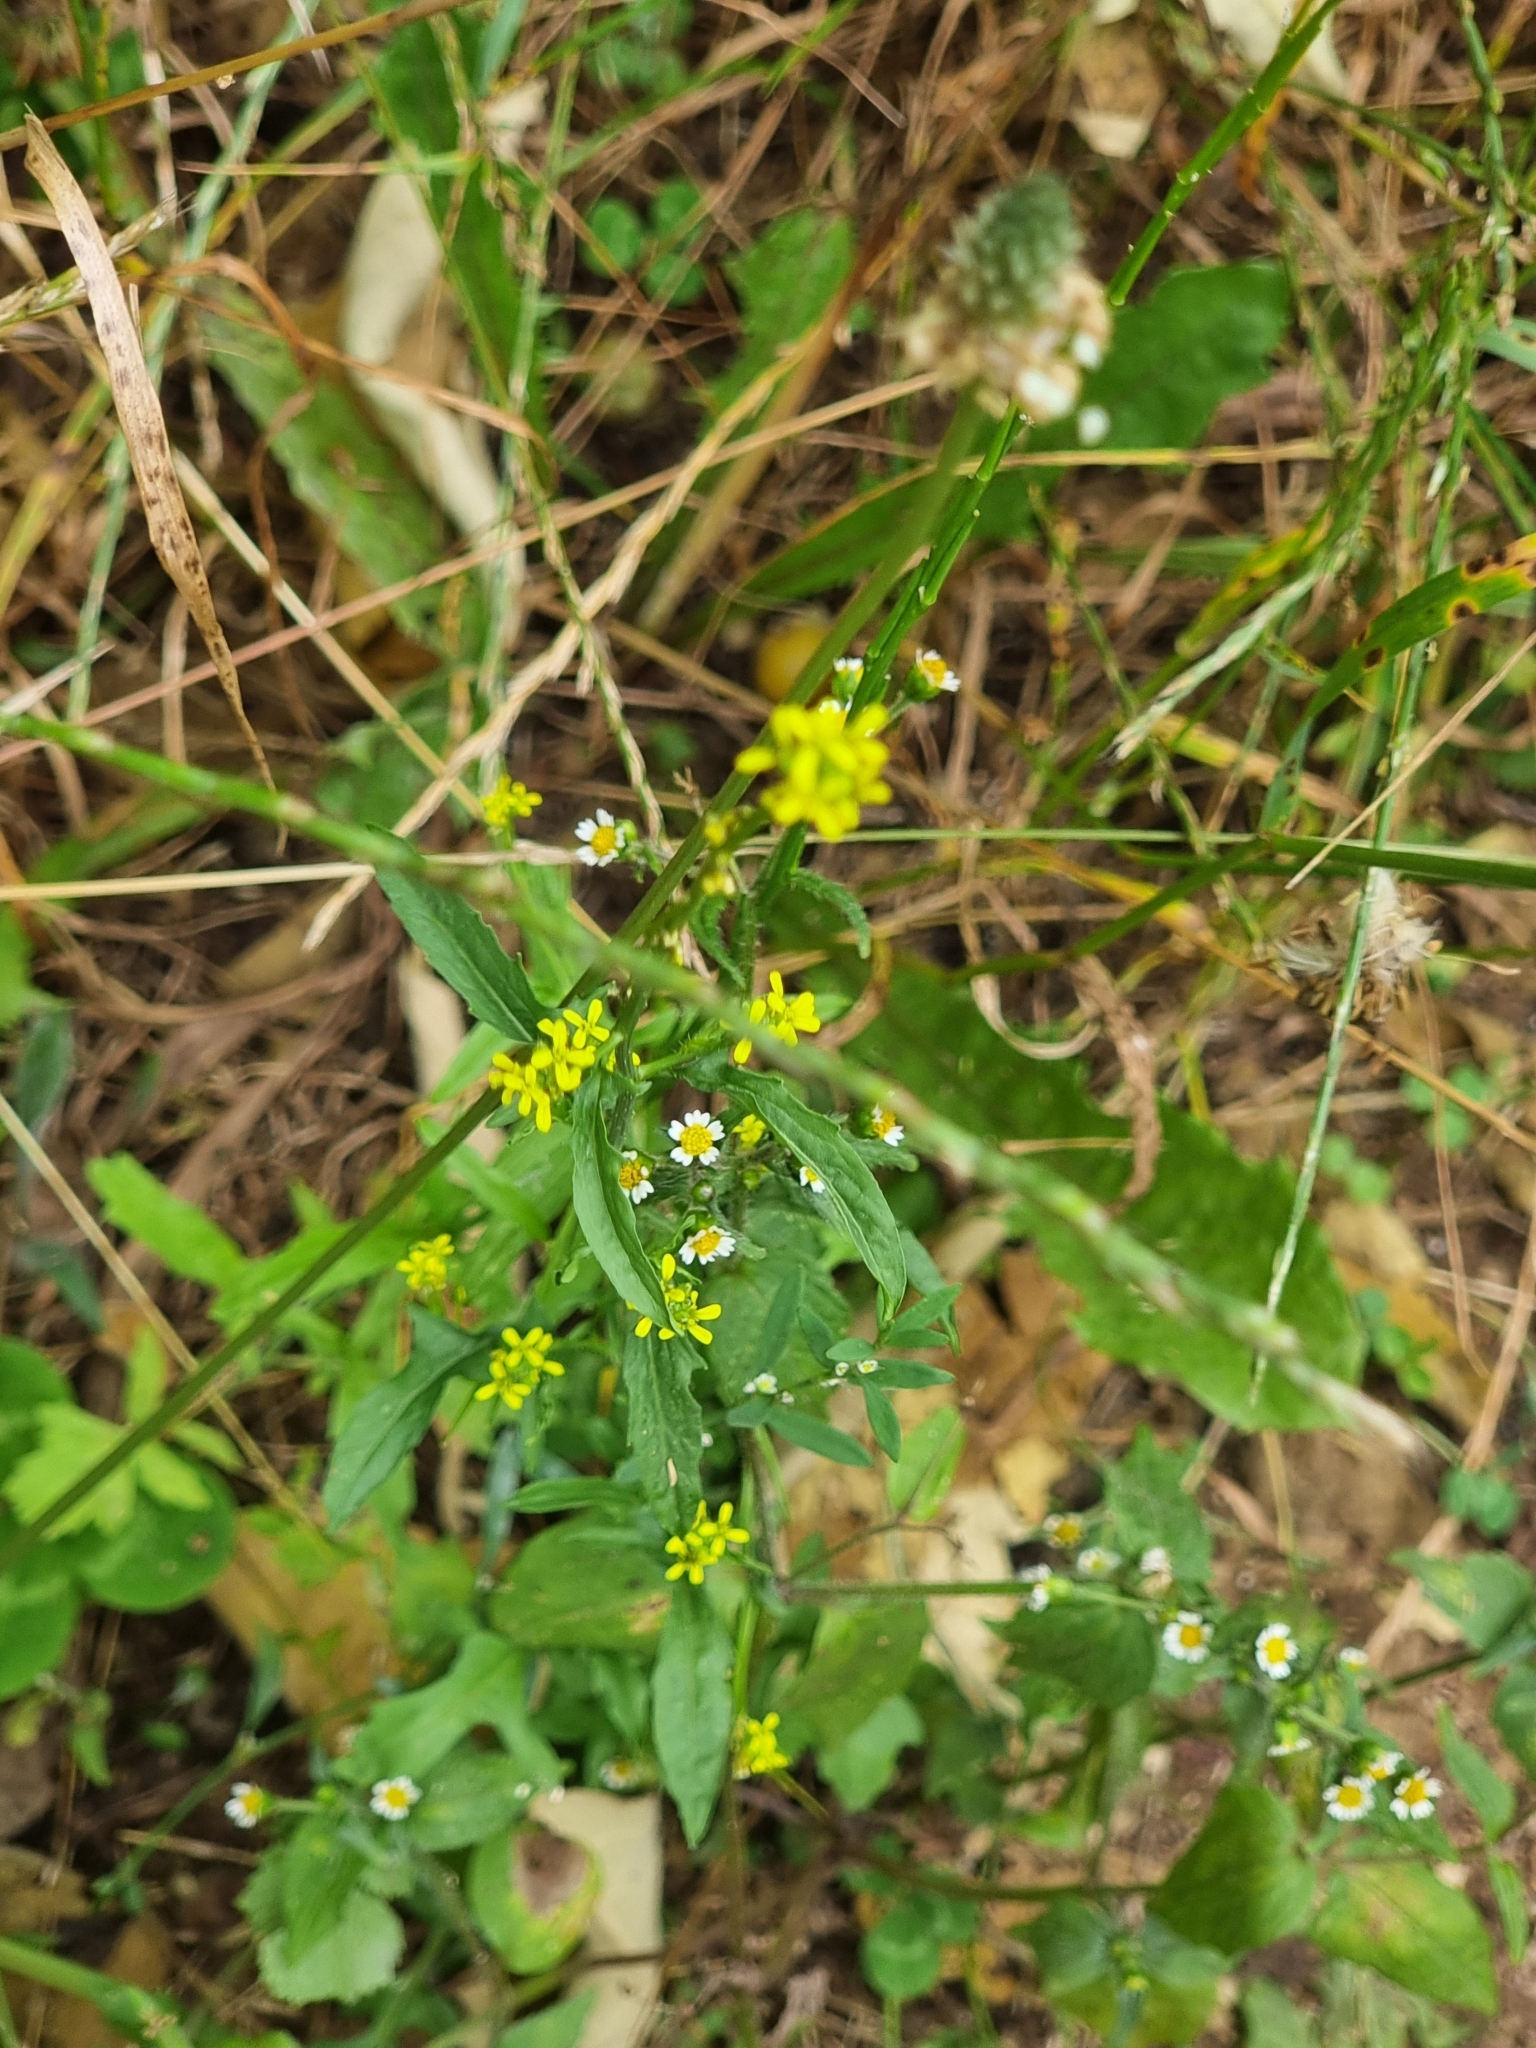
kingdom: Plantae
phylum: Tracheophyta
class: Magnoliopsida
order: Brassicales
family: Brassicaceae
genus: Sisymbrium
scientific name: Sisymbrium officinale
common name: Hedge mustard
